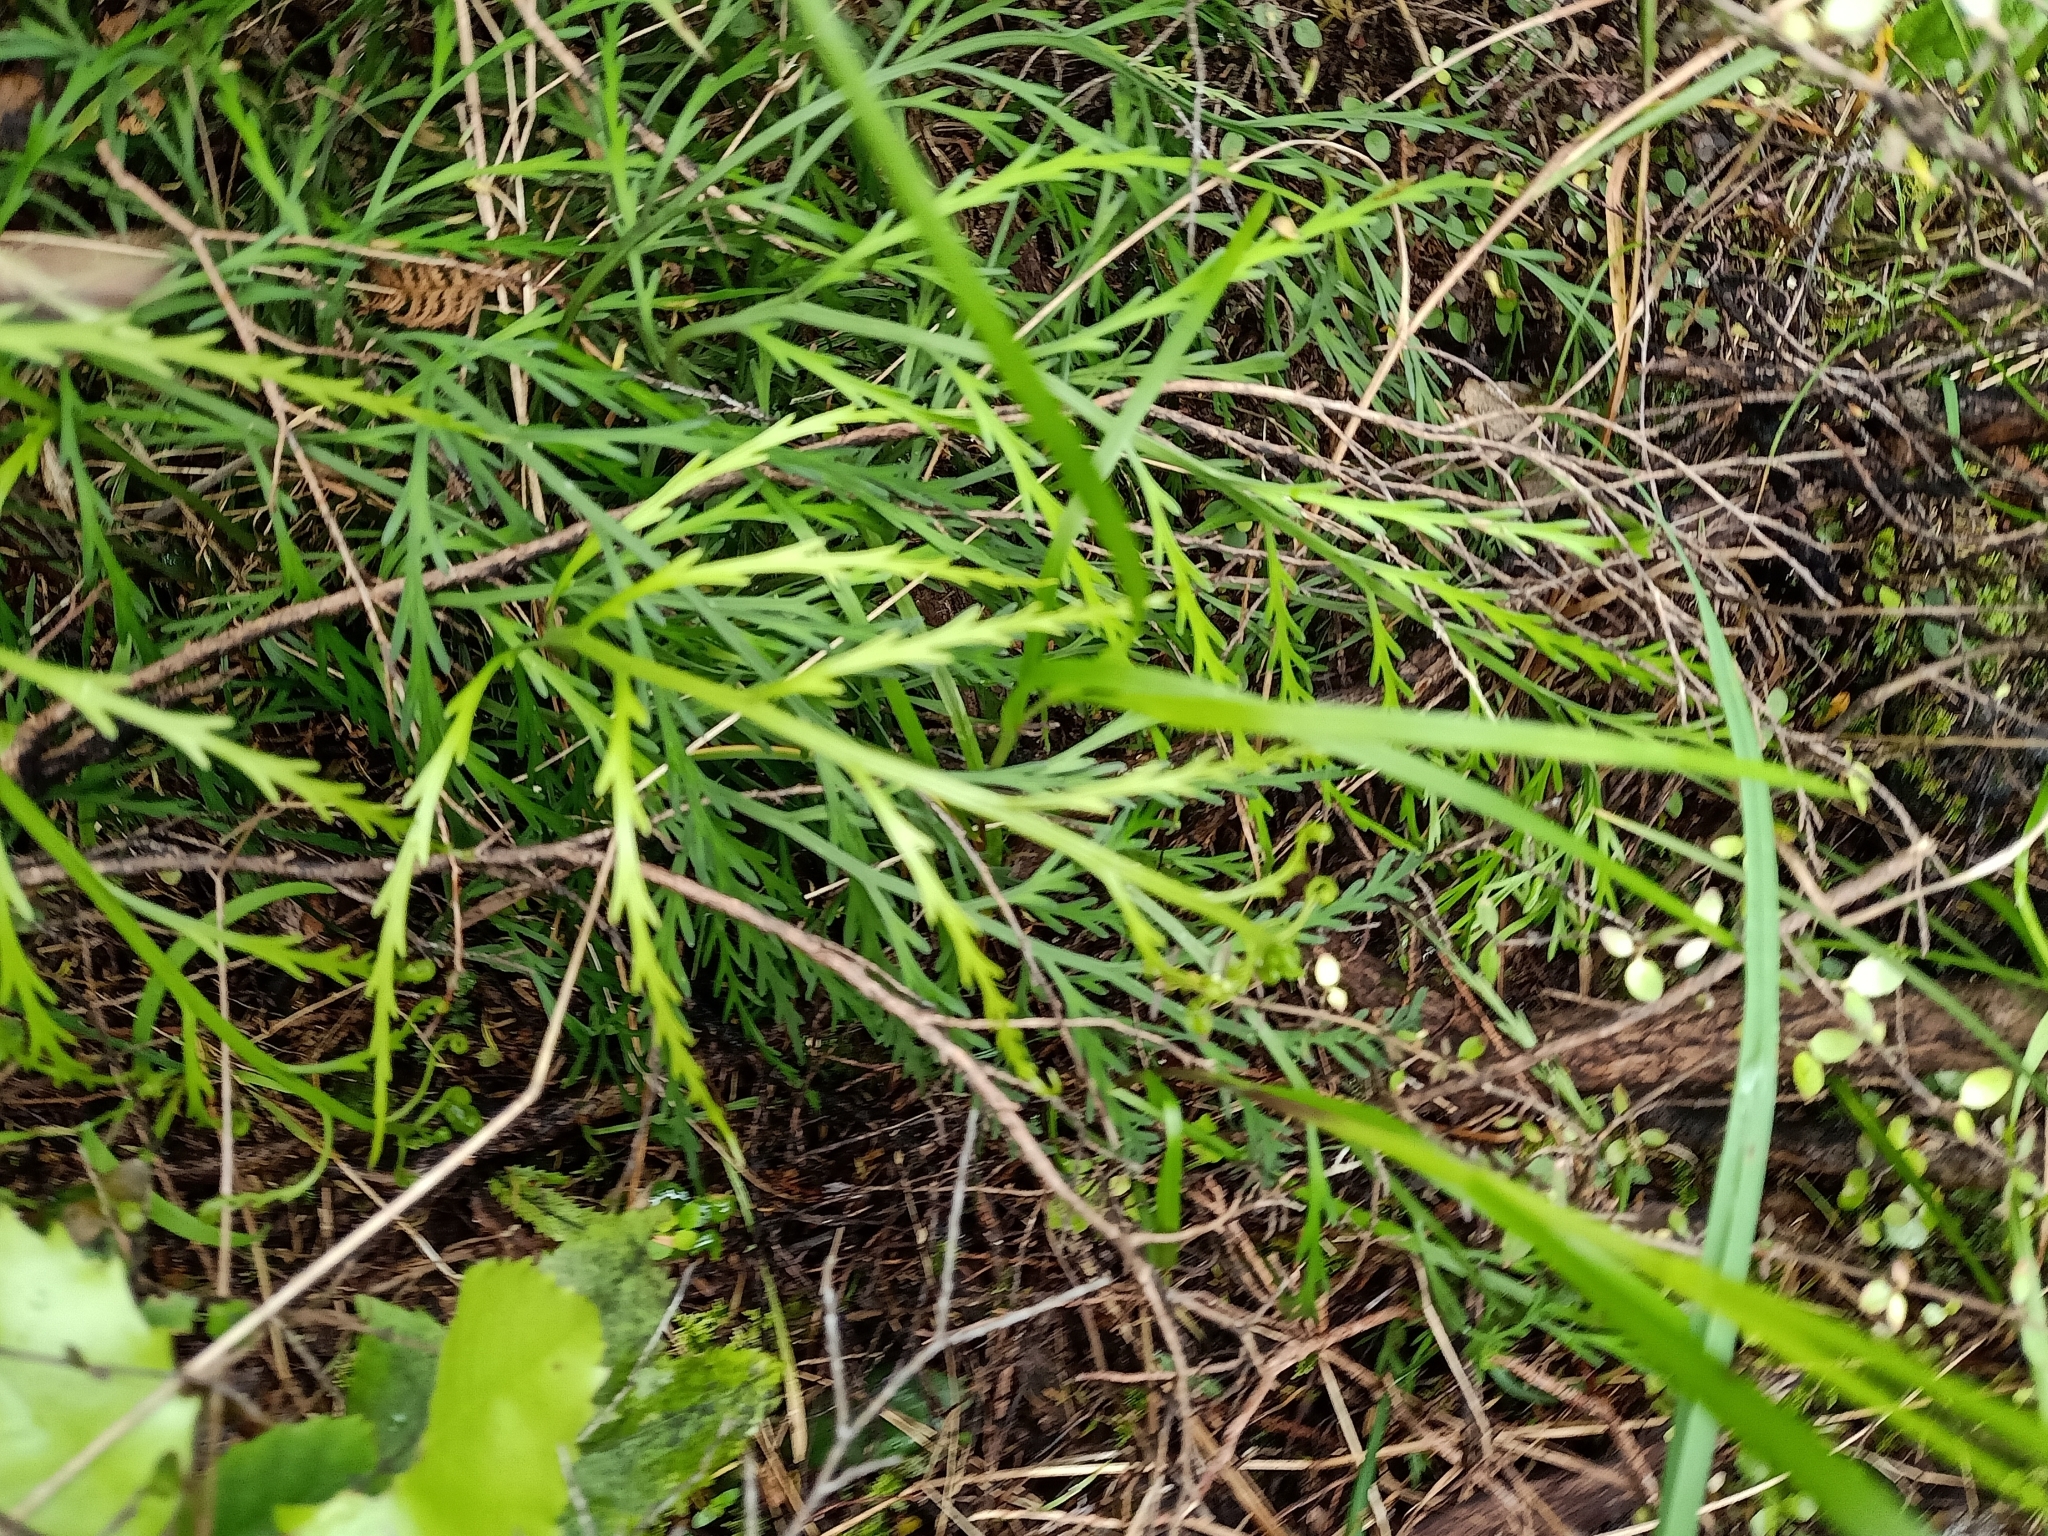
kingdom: Plantae
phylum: Tracheophyta
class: Polypodiopsida
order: Polypodiales
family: Aspleniaceae
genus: Asplenium
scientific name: Asplenium flaccidum
